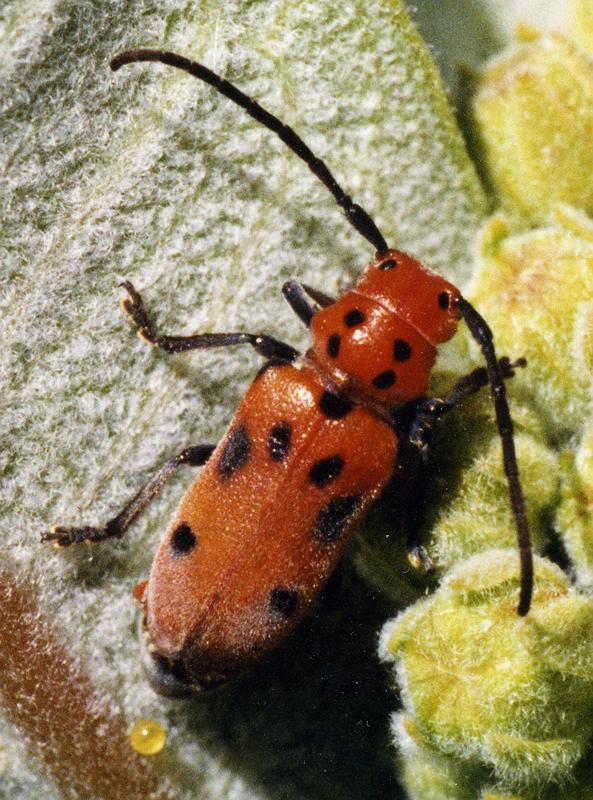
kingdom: Animalia
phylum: Arthropoda
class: Insecta
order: Coleoptera
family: Cerambycidae
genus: Tetraopes
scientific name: Tetraopes tetrophthalmus
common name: Red milkweed beetle
